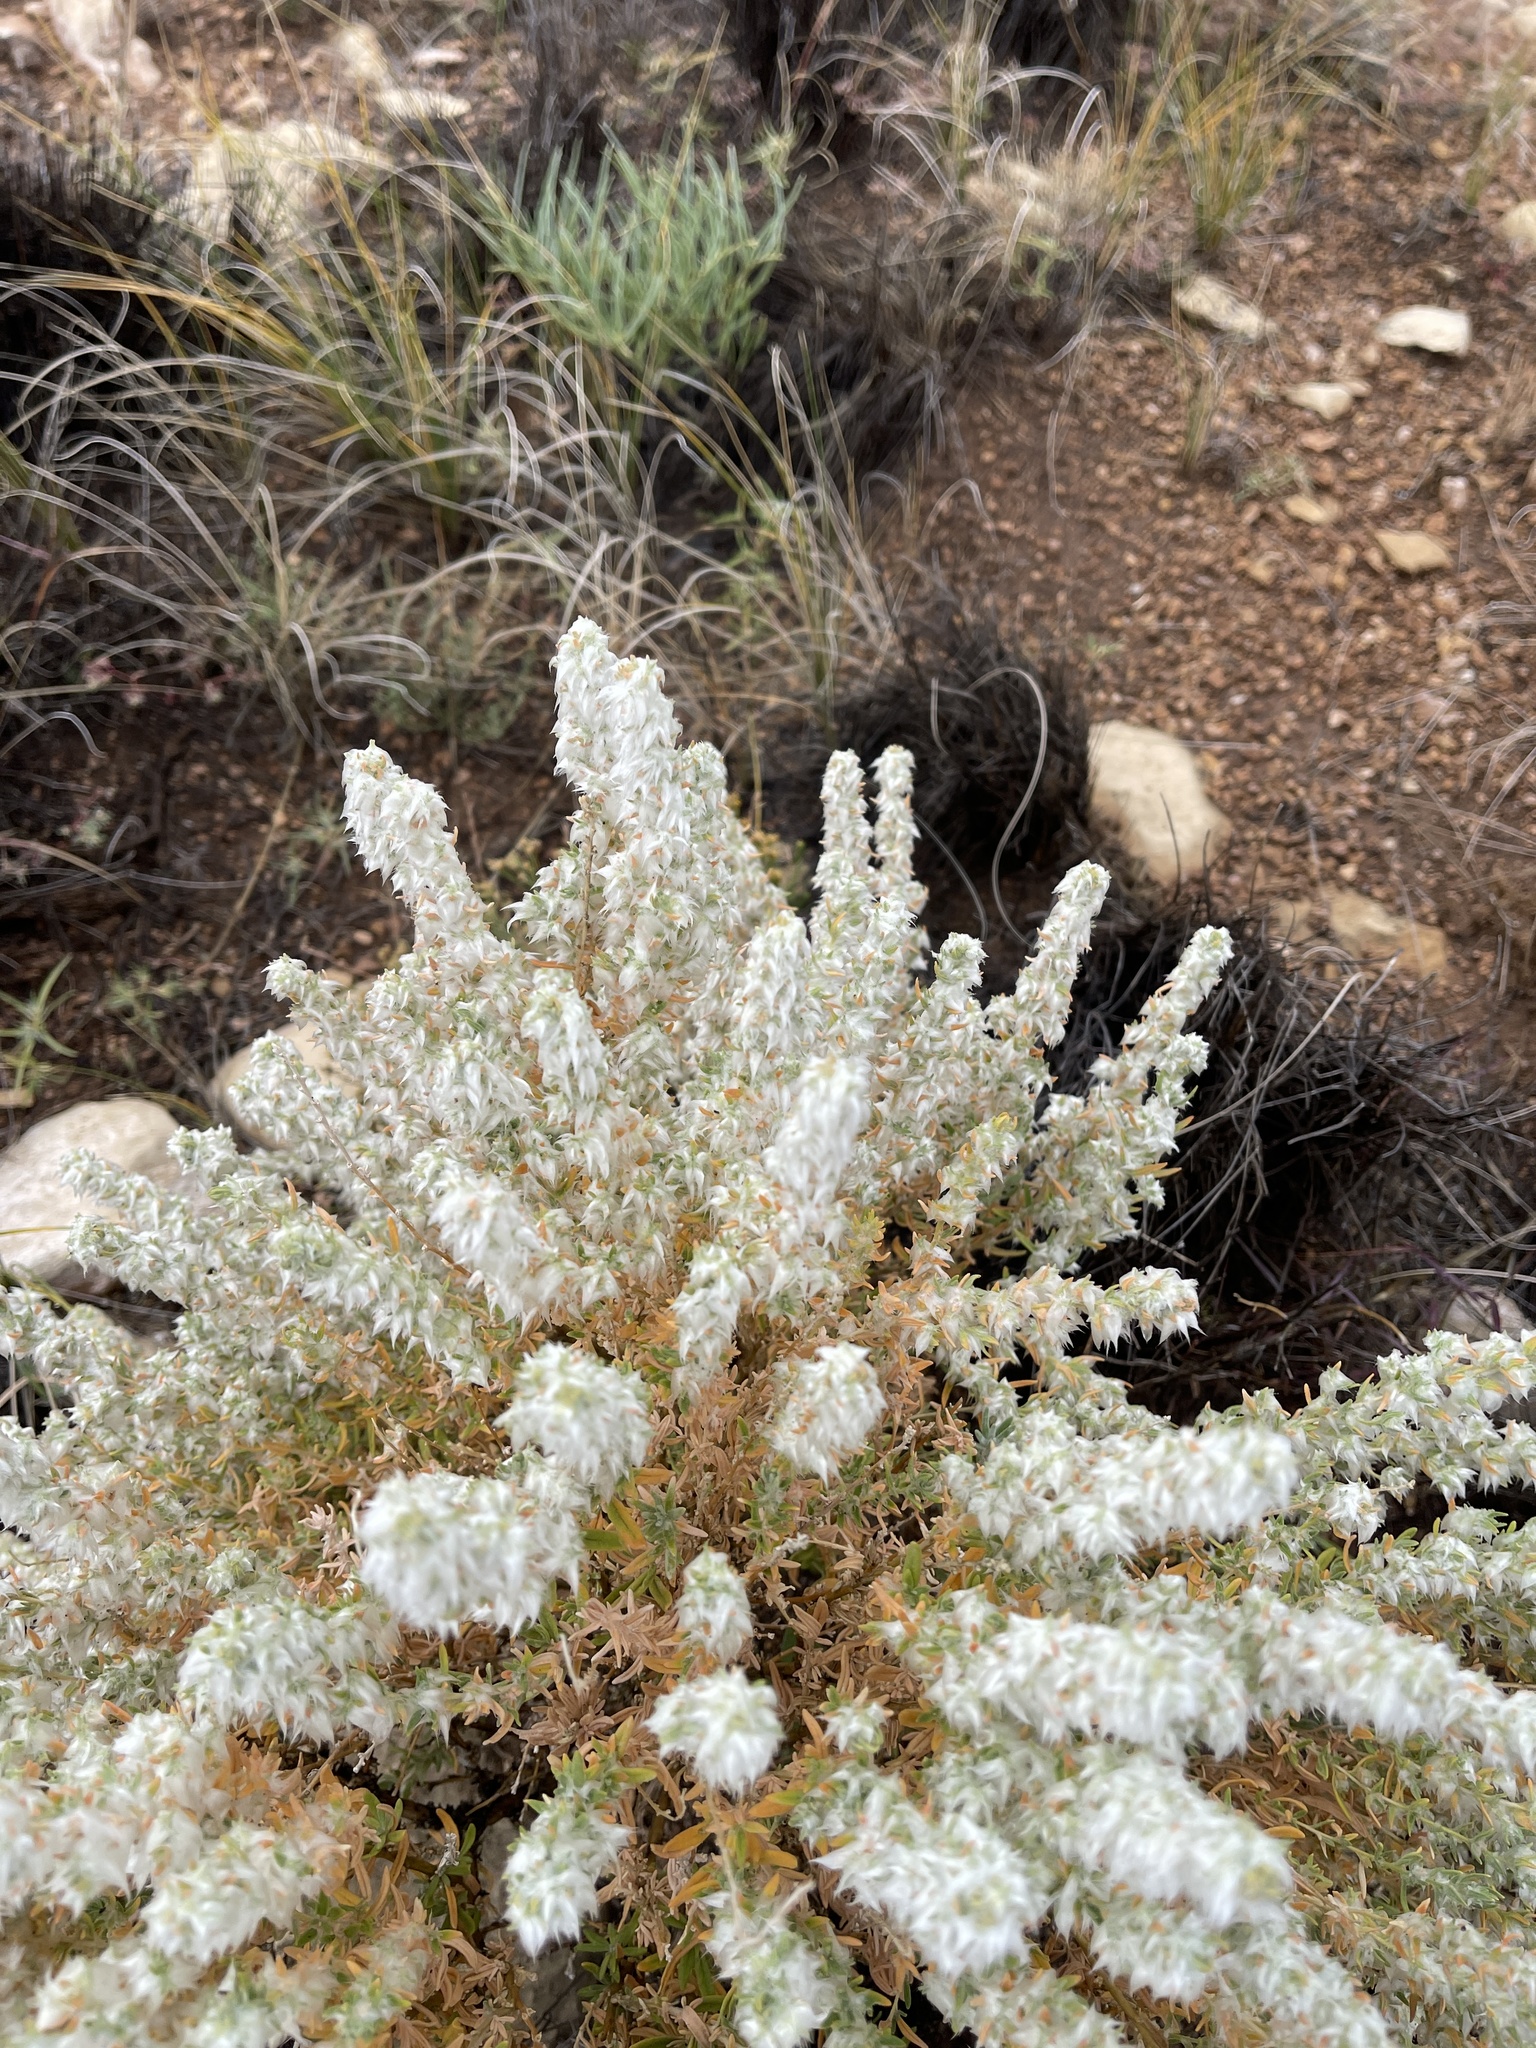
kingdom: Plantae
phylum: Tracheophyta
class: Magnoliopsida
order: Caryophyllales
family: Amaranthaceae
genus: Krascheninnikovia
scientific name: Krascheninnikovia lanata
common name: Winterfat
